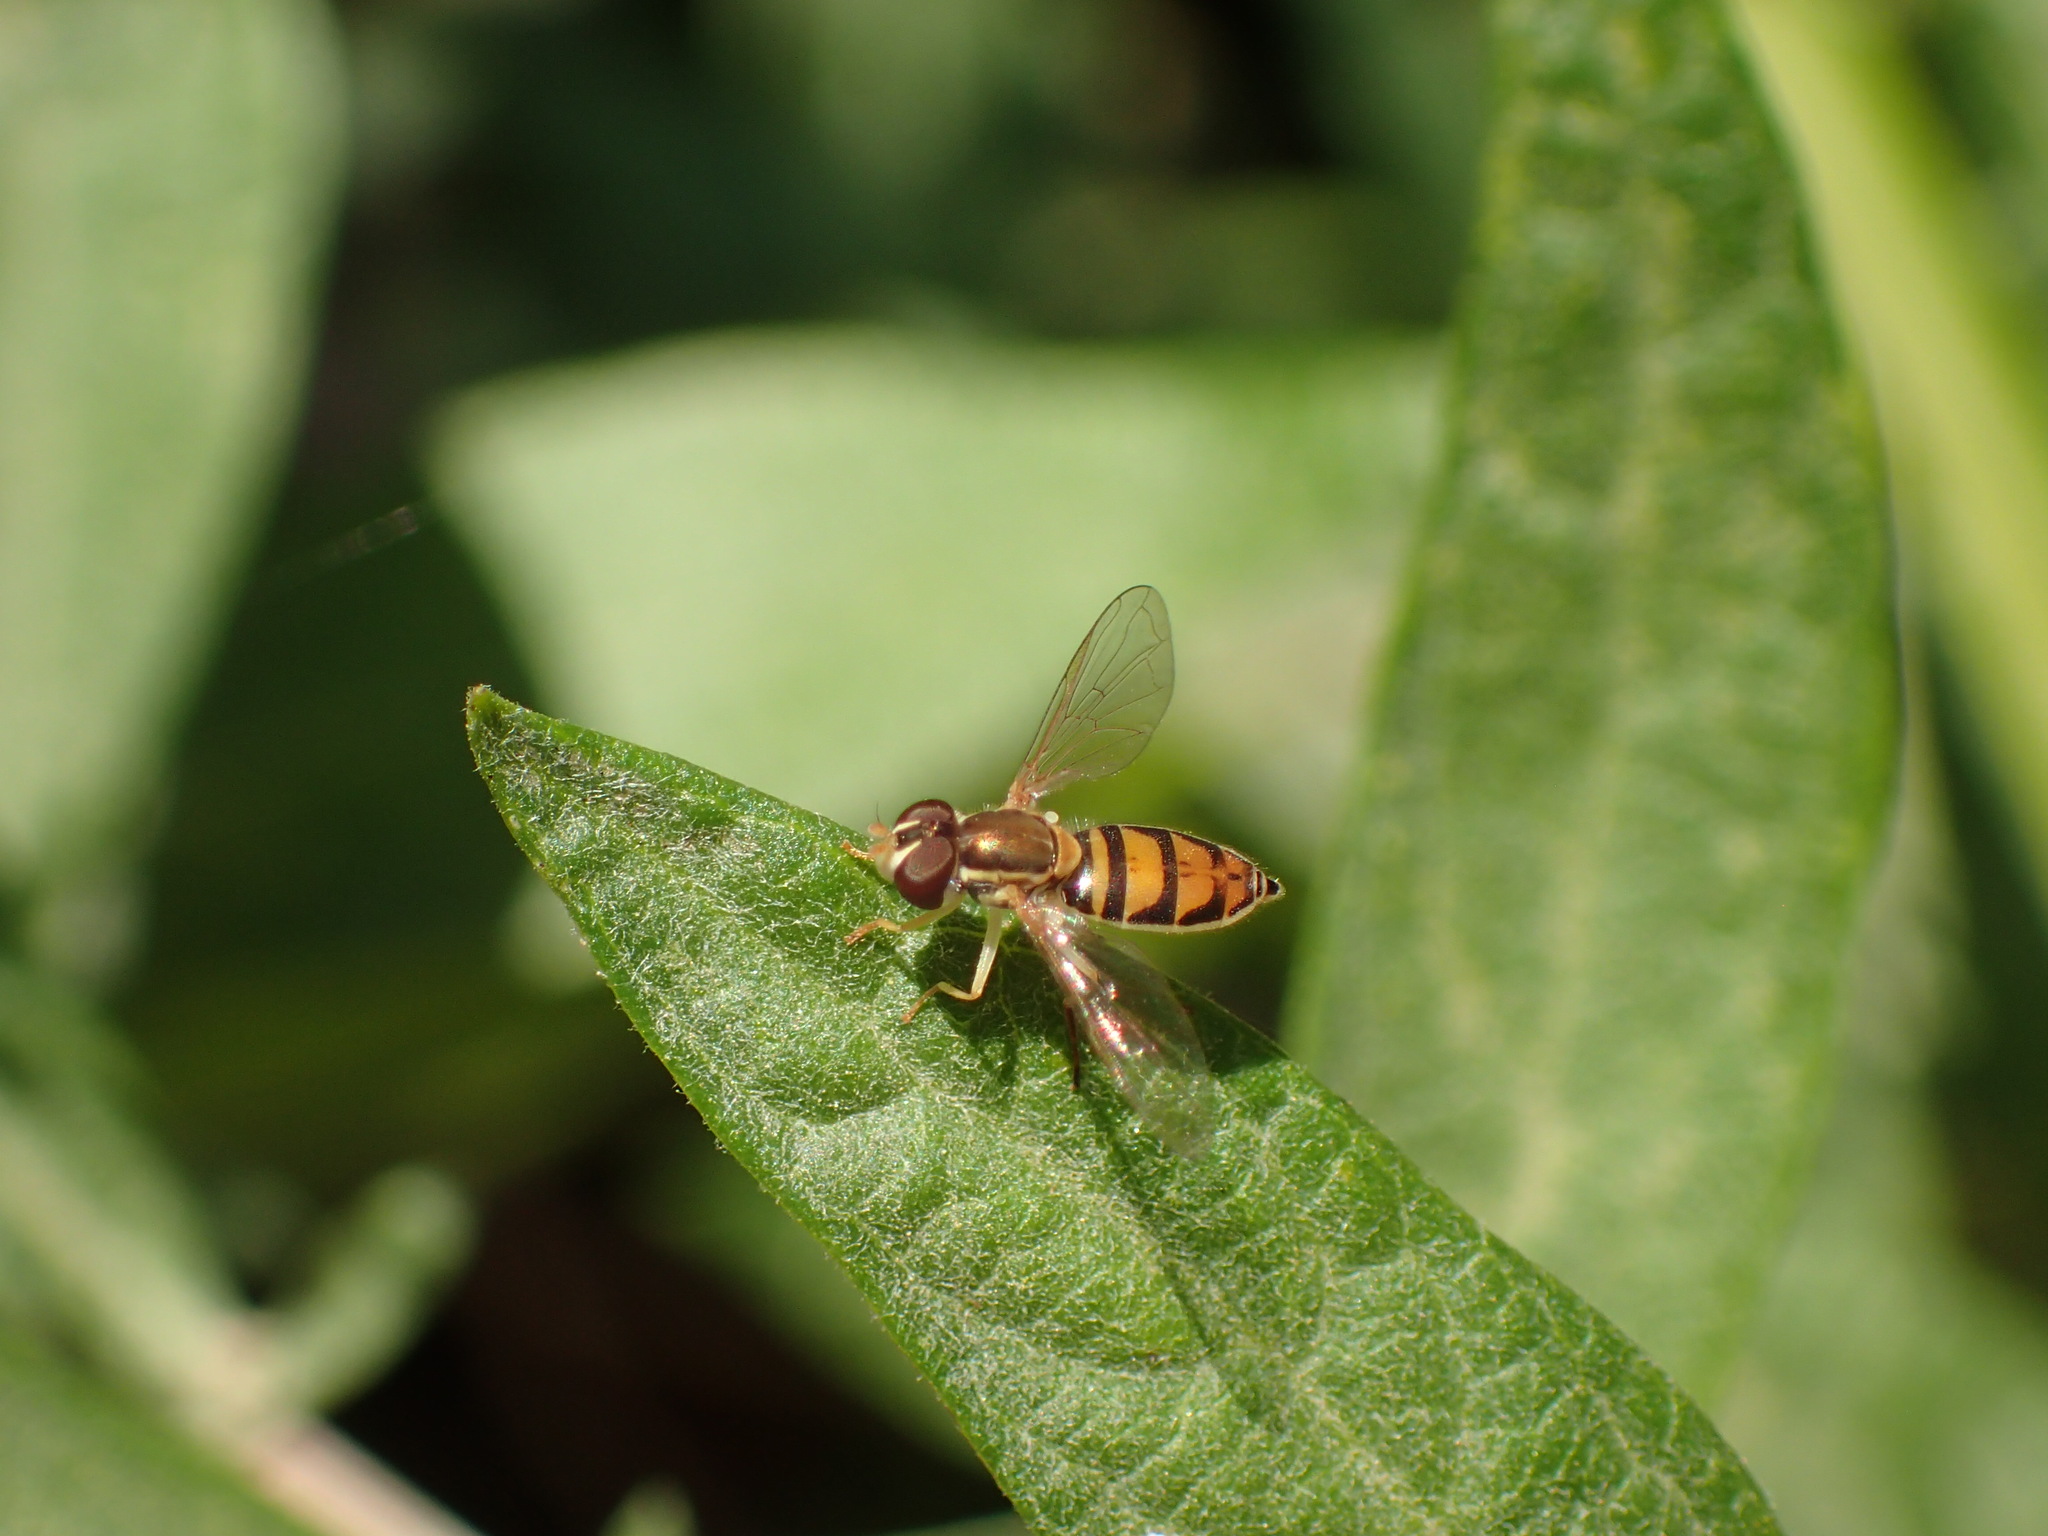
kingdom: Animalia
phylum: Arthropoda
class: Insecta
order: Diptera
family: Syrphidae
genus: Toxomerus
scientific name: Toxomerus marginatus
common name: Syrphid fly
